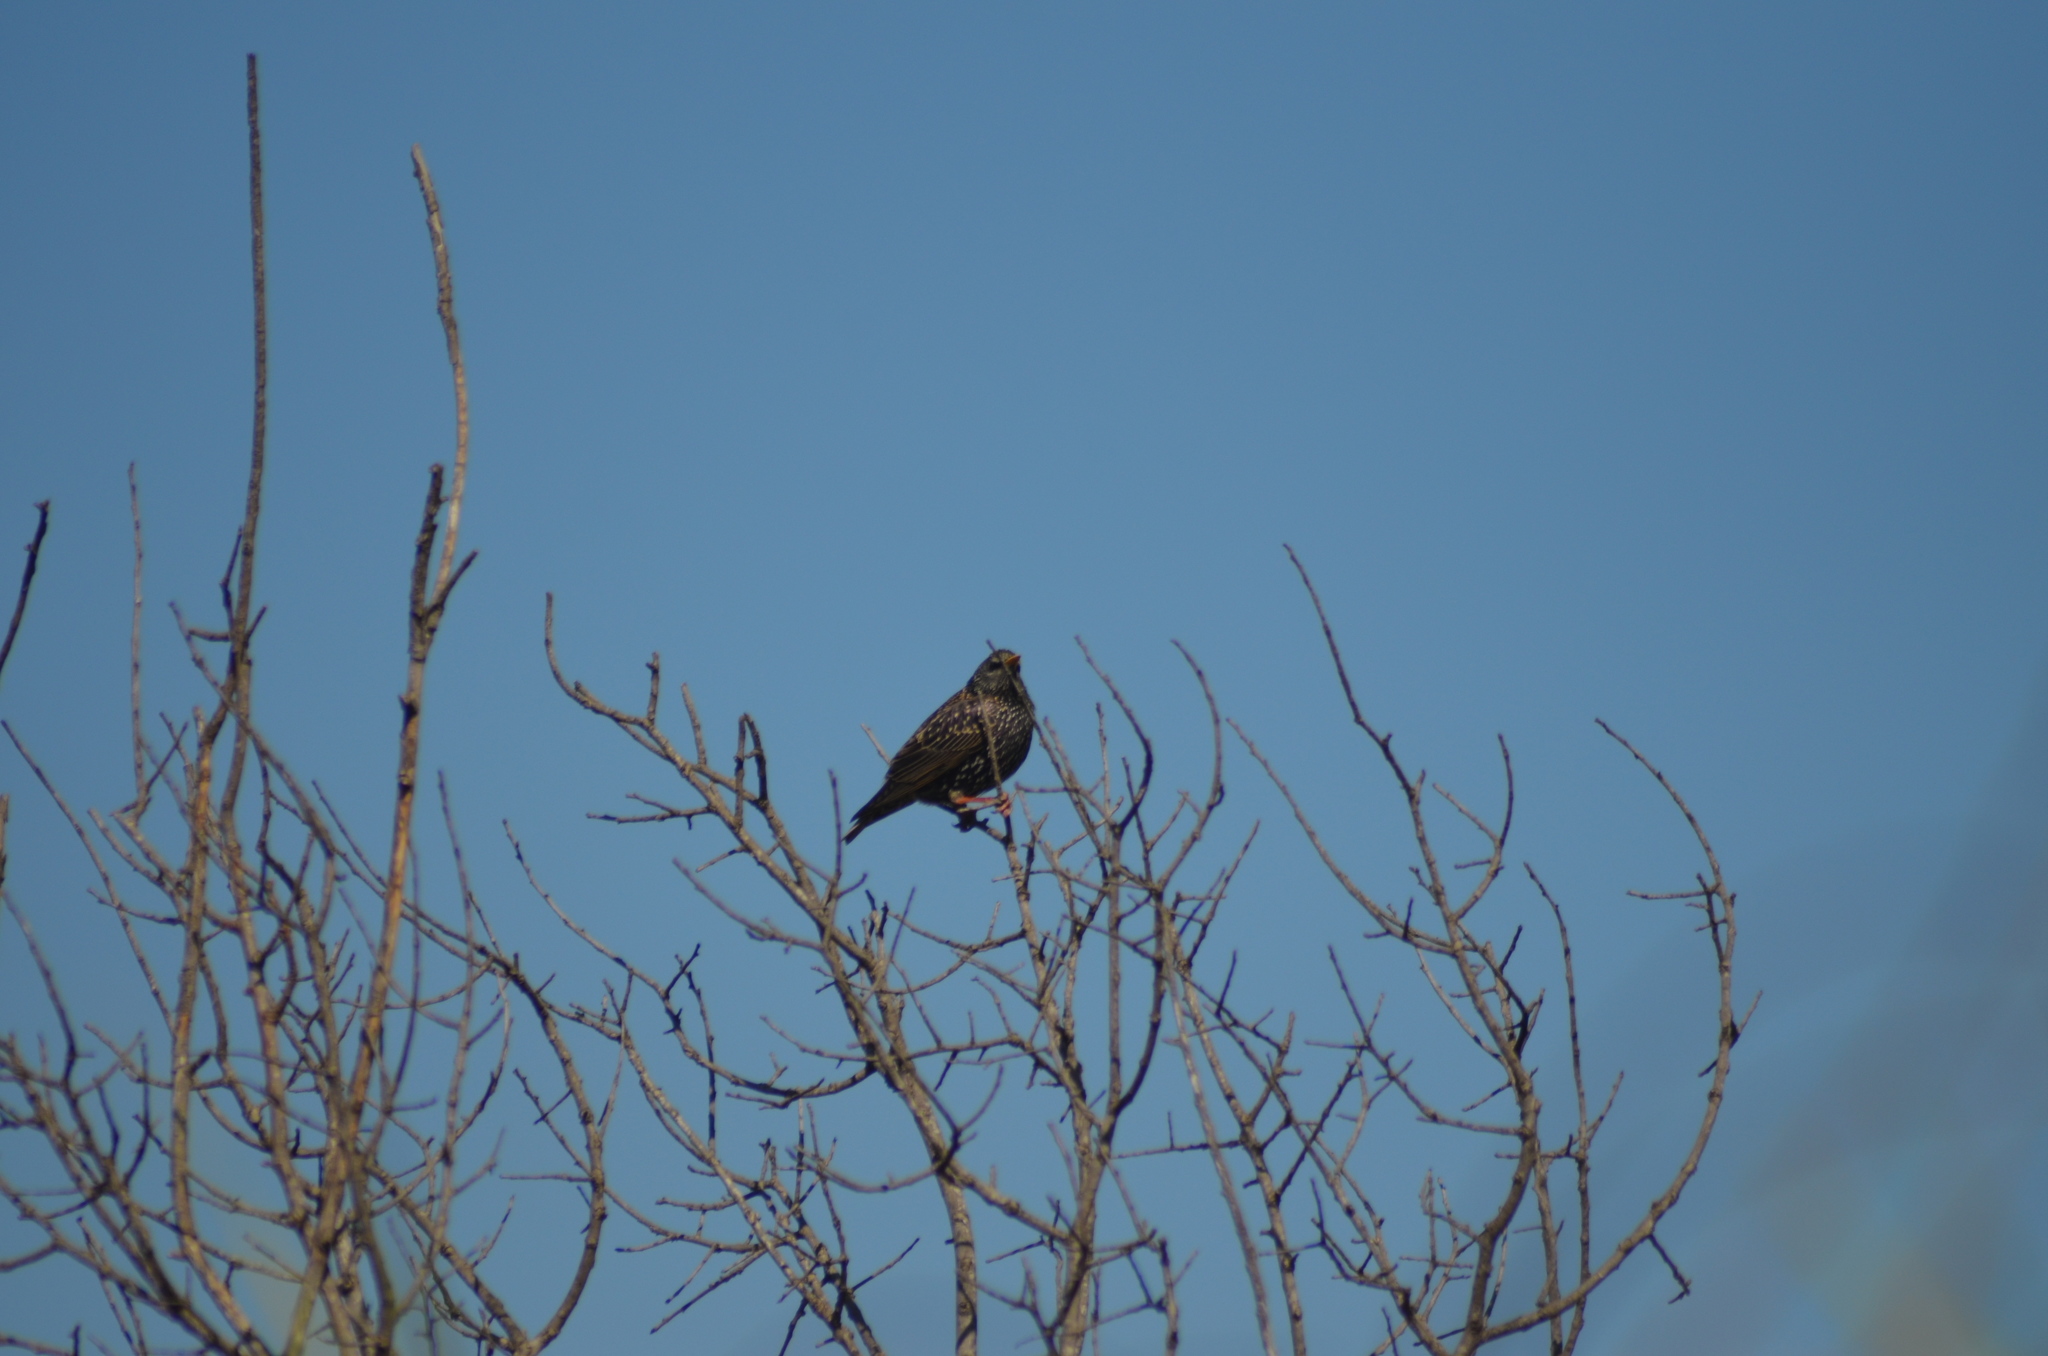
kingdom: Animalia
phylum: Chordata
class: Aves
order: Passeriformes
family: Sturnidae
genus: Sturnus
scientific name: Sturnus vulgaris
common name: Common starling
